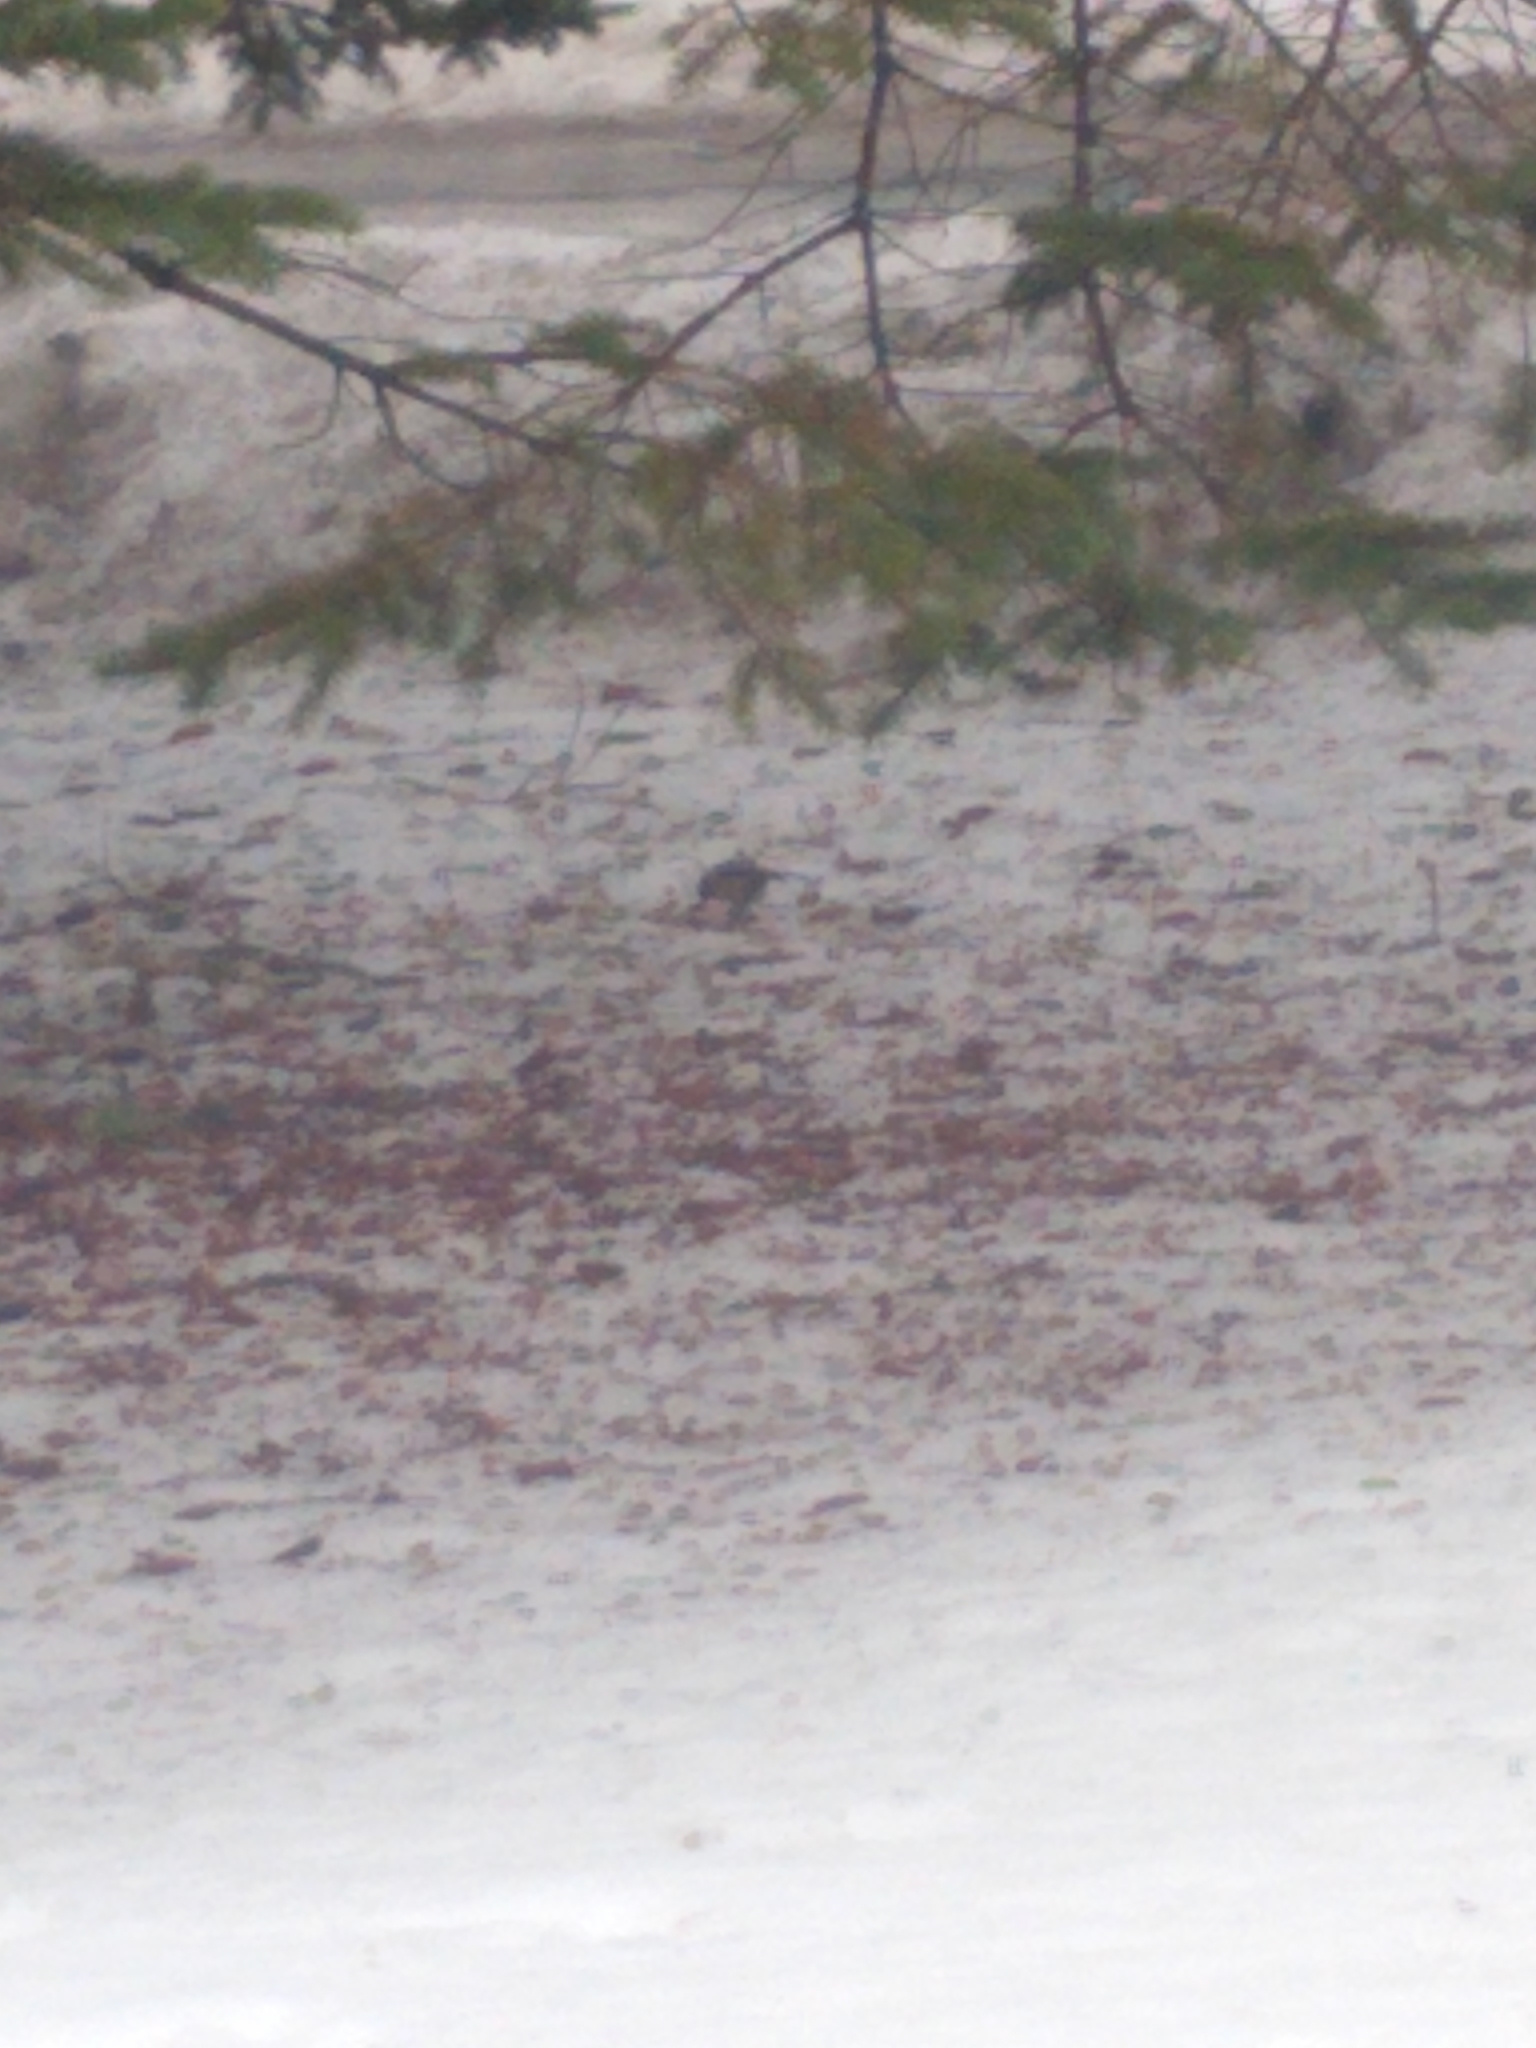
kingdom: Animalia
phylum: Chordata
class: Aves
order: Passeriformes
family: Paridae
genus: Poecile
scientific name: Poecile atricapillus
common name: Black-capped chickadee
